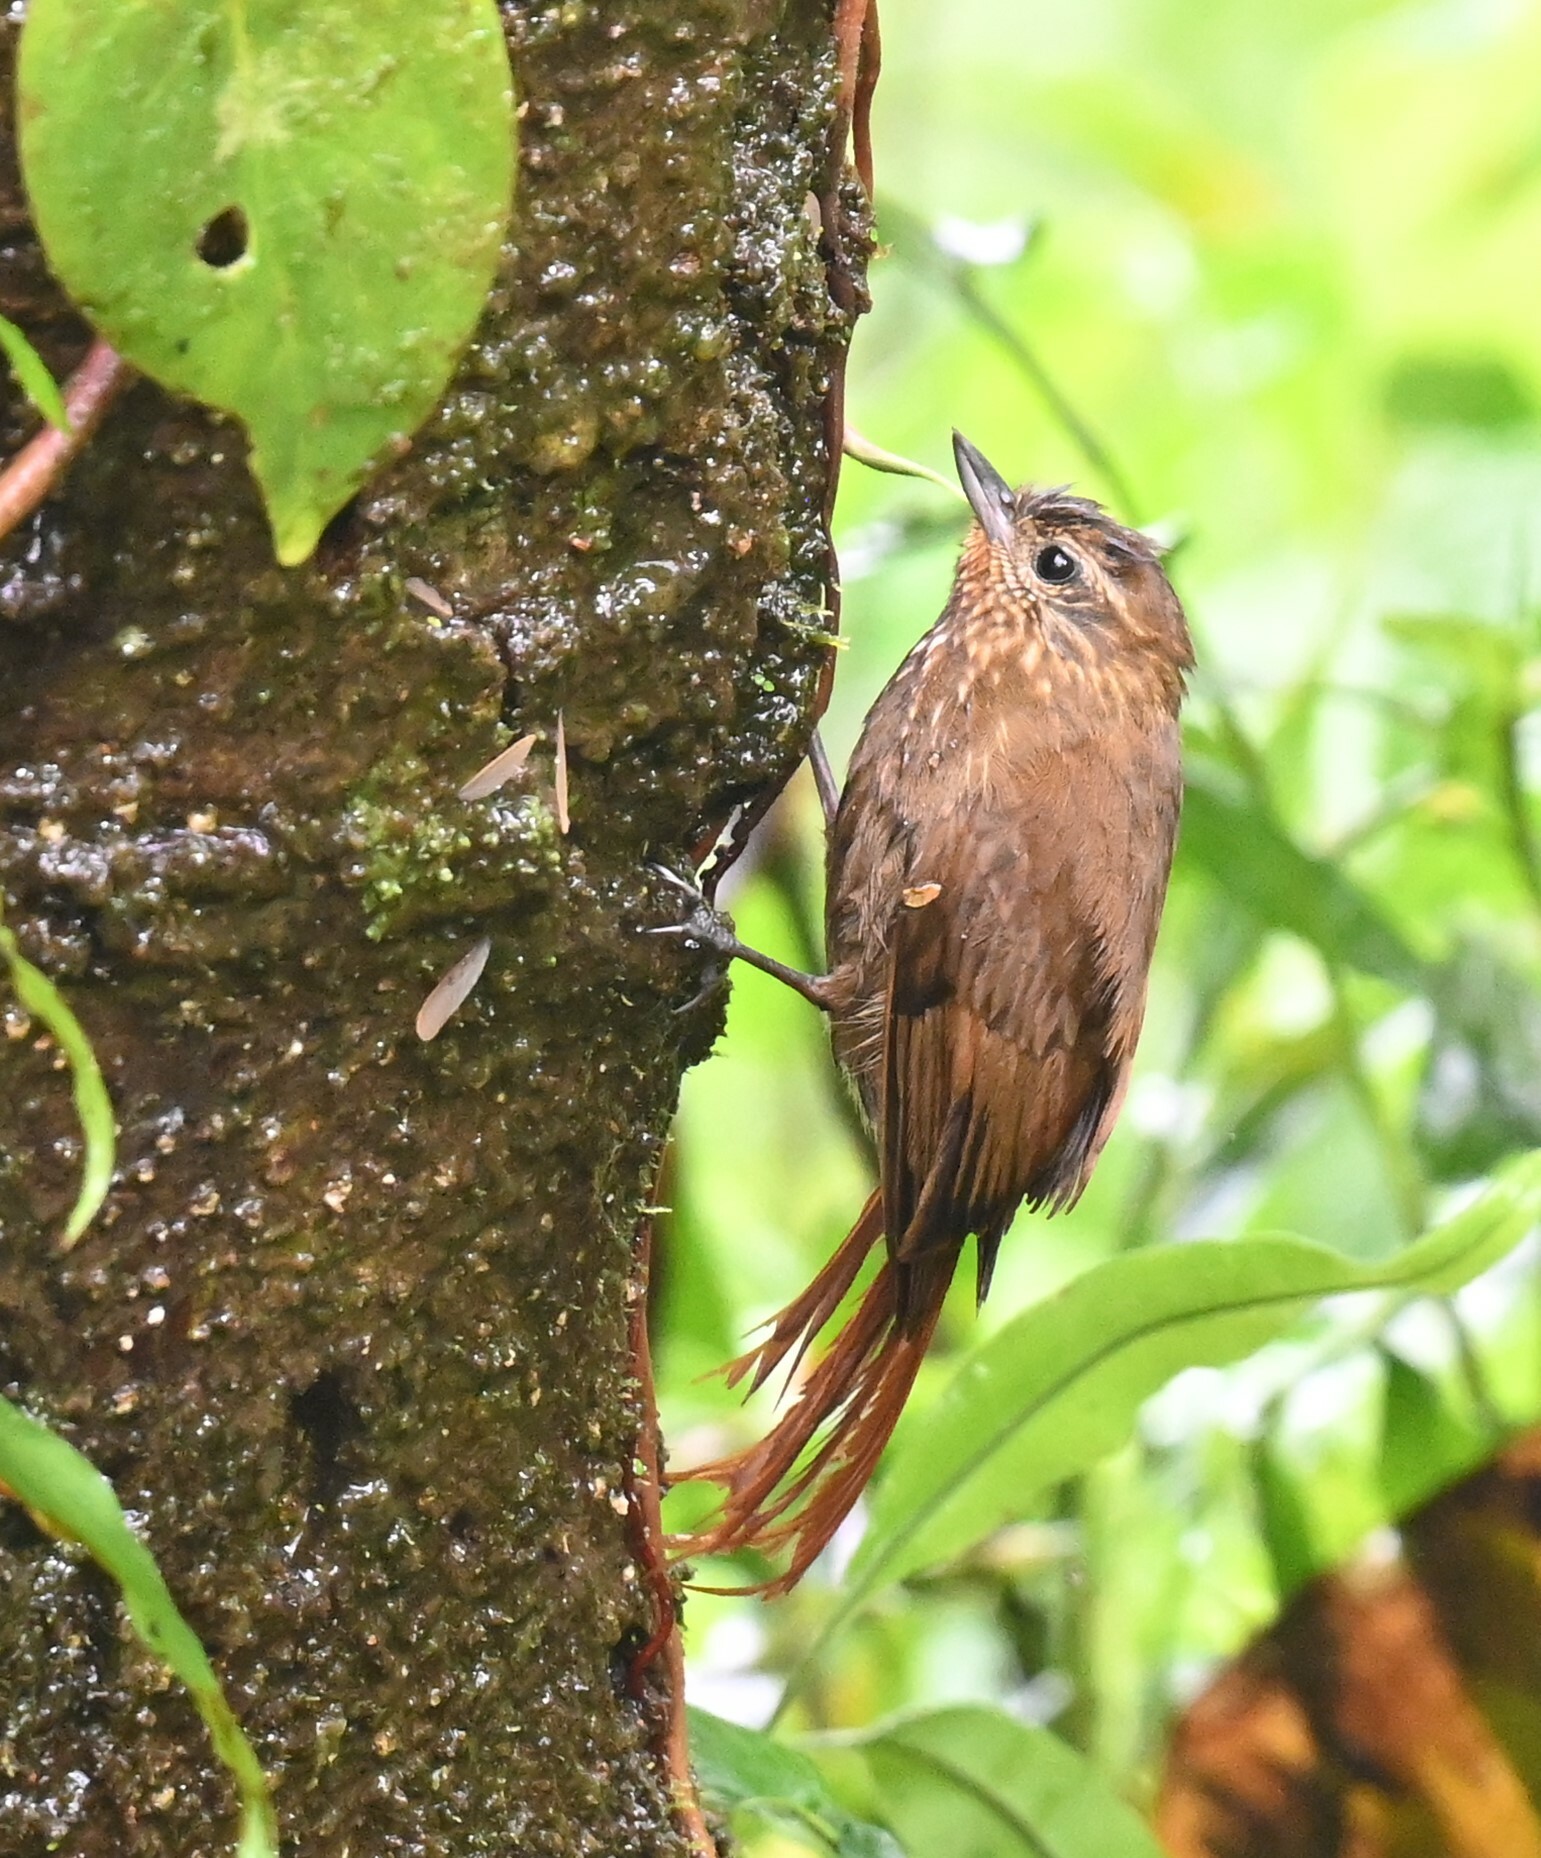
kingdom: Animalia
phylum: Chordata
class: Aves
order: Passeriformes
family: Furnariidae
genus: Glyphorynchus
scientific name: Glyphorynchus spirurus
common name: Wedge-billed woodcreeper
